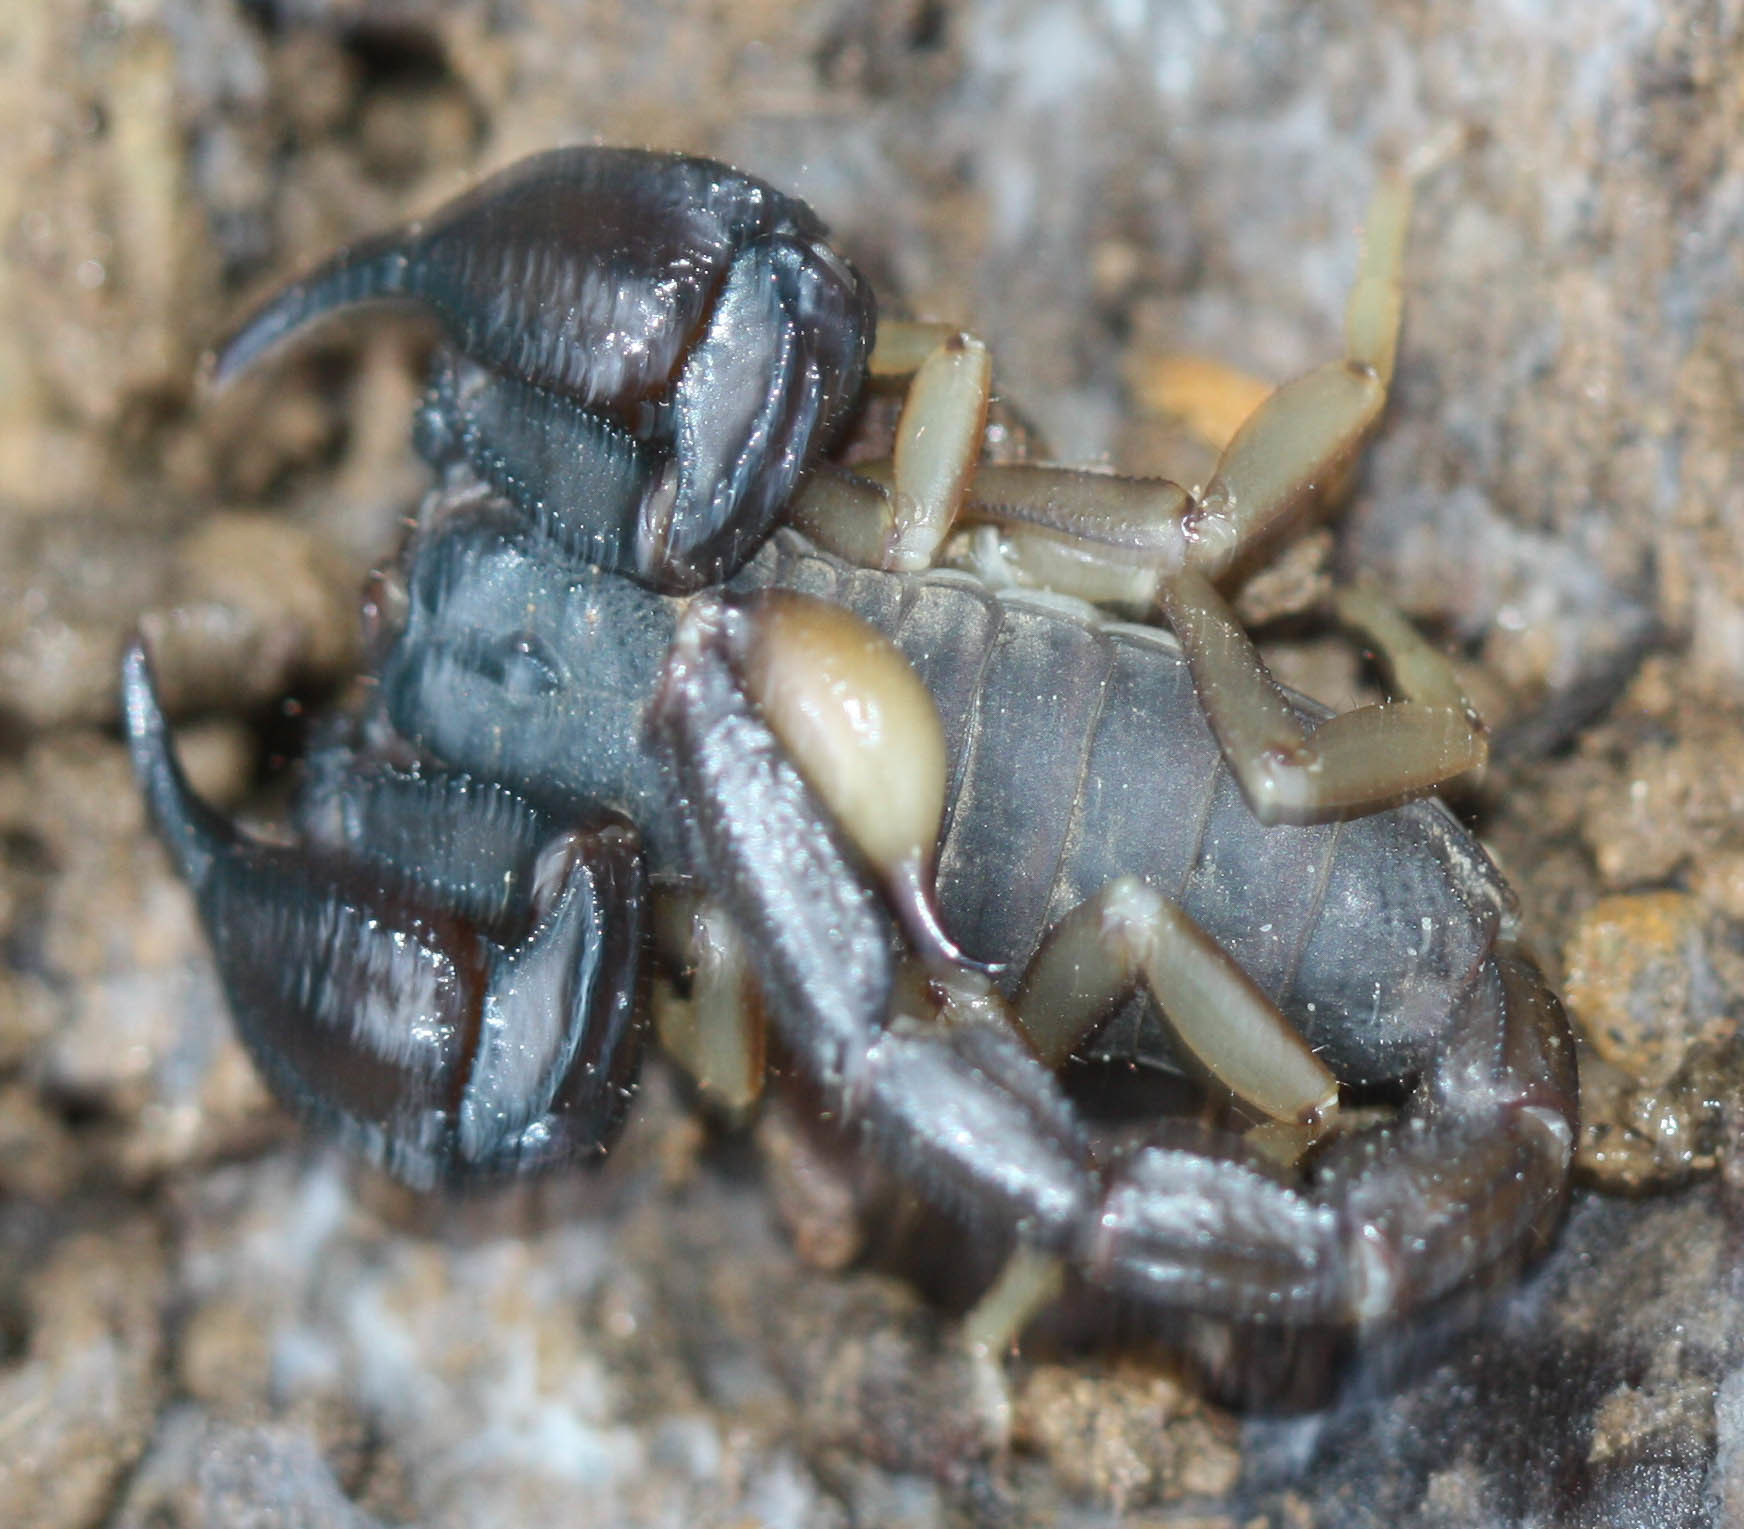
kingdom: Animalia
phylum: Arthropoda
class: Arachnida
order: Scorpiones
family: Chactidae
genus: Uroctonus
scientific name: Uroctonus mordax
